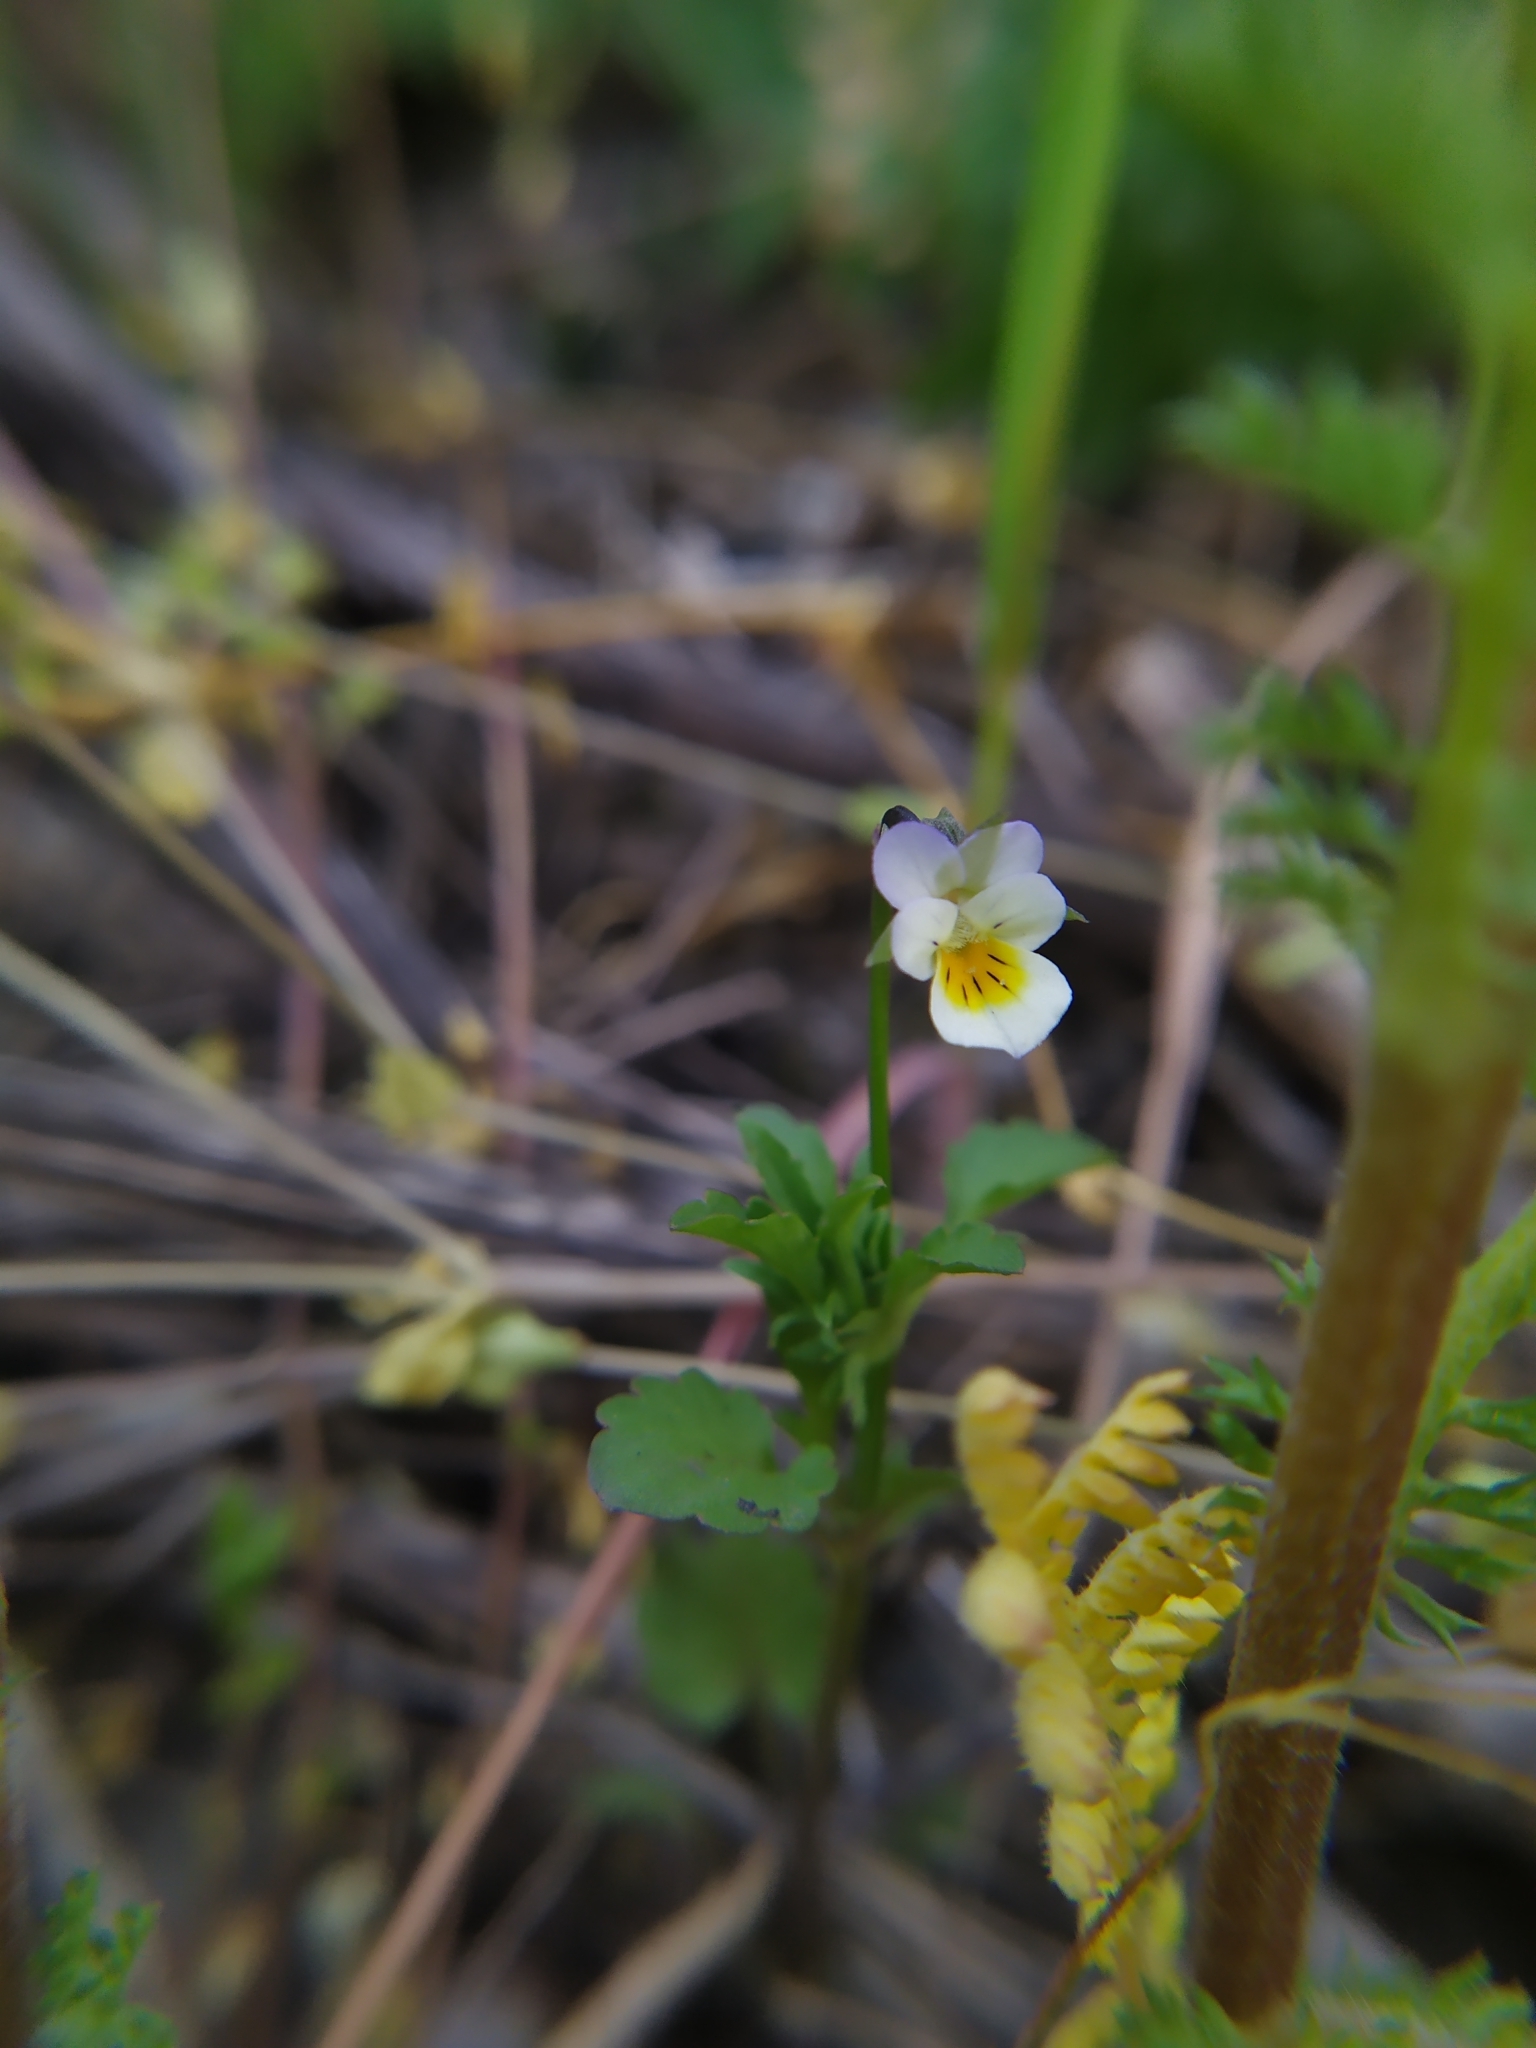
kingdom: Plantae
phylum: Tracheophyta
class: Magnoliopsida
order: Malpighiales
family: Violaceae
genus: Viola
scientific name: Viola arvensis
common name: Field pansy
